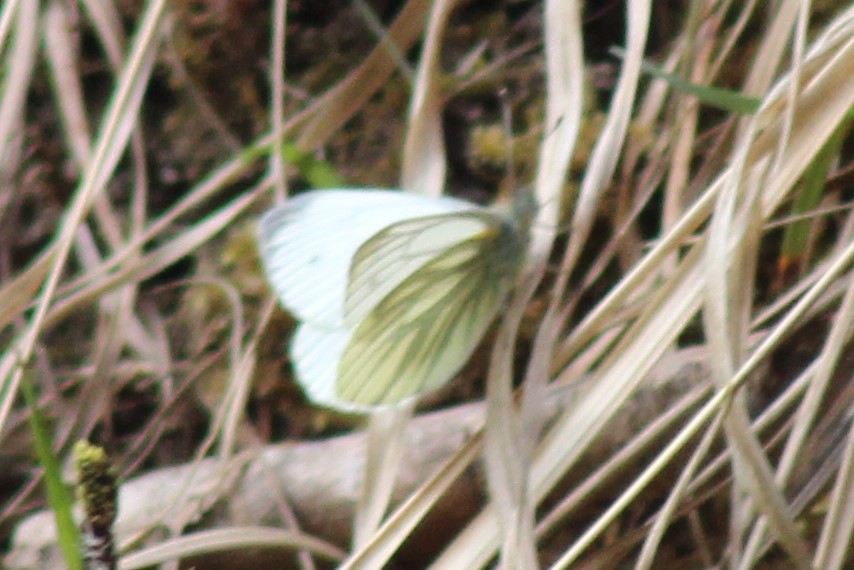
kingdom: Animalia
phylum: Arthropoda
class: Insecta
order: Lepidoptera
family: Pieridae
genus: Pieris
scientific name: Pieris napi
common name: Green-veined white
